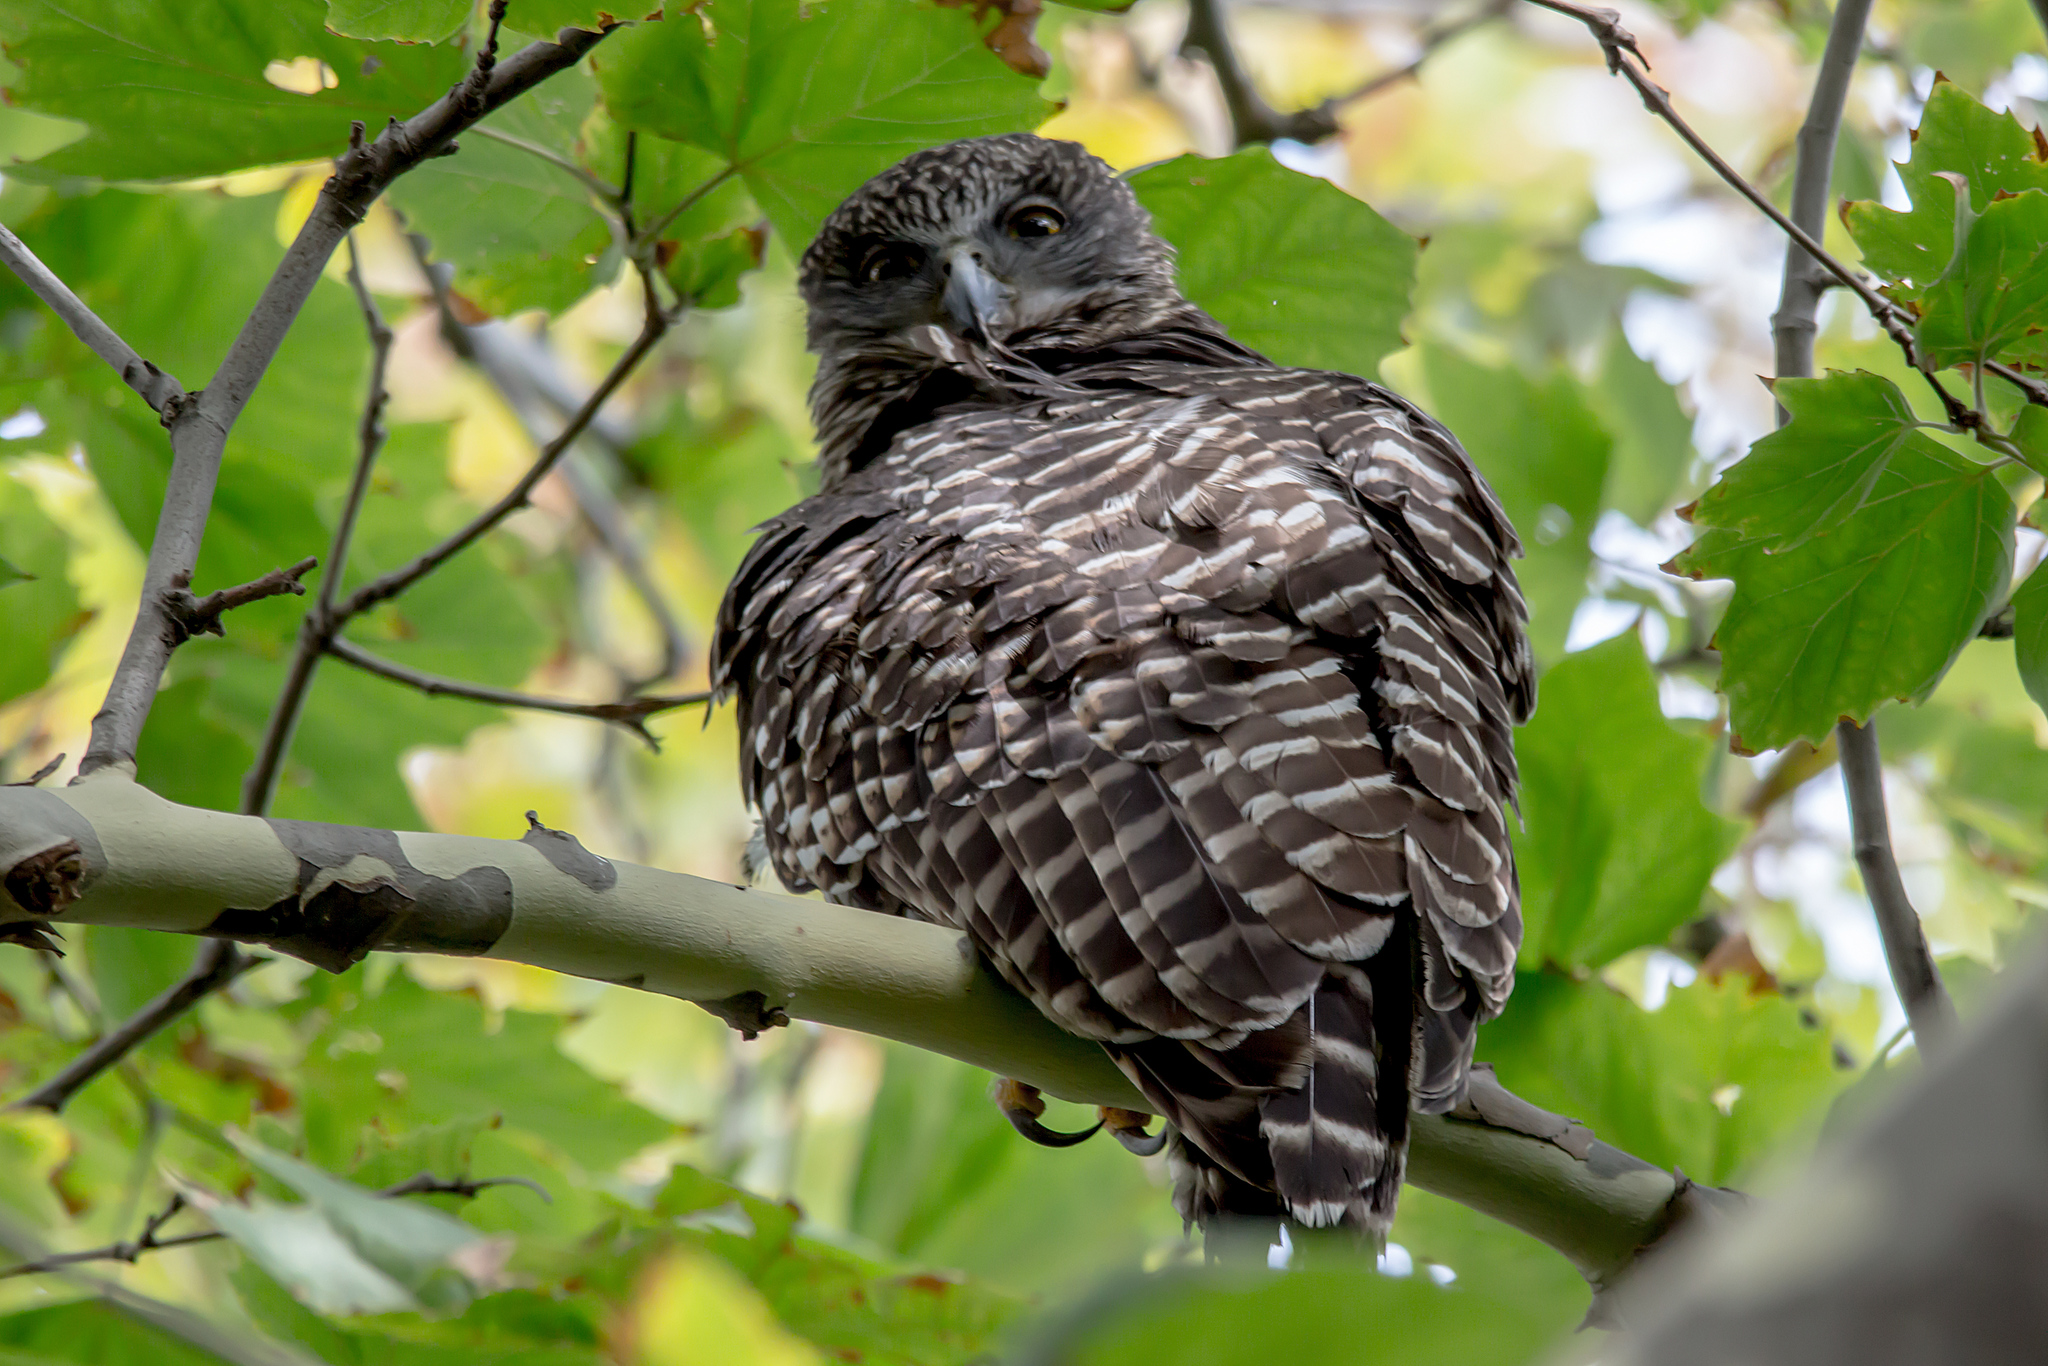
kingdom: Animalia
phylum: Chordata
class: Aves
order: Strigiformes
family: Strigidae
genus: Ninox
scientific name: Ninox strenua
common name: Powerful owl
